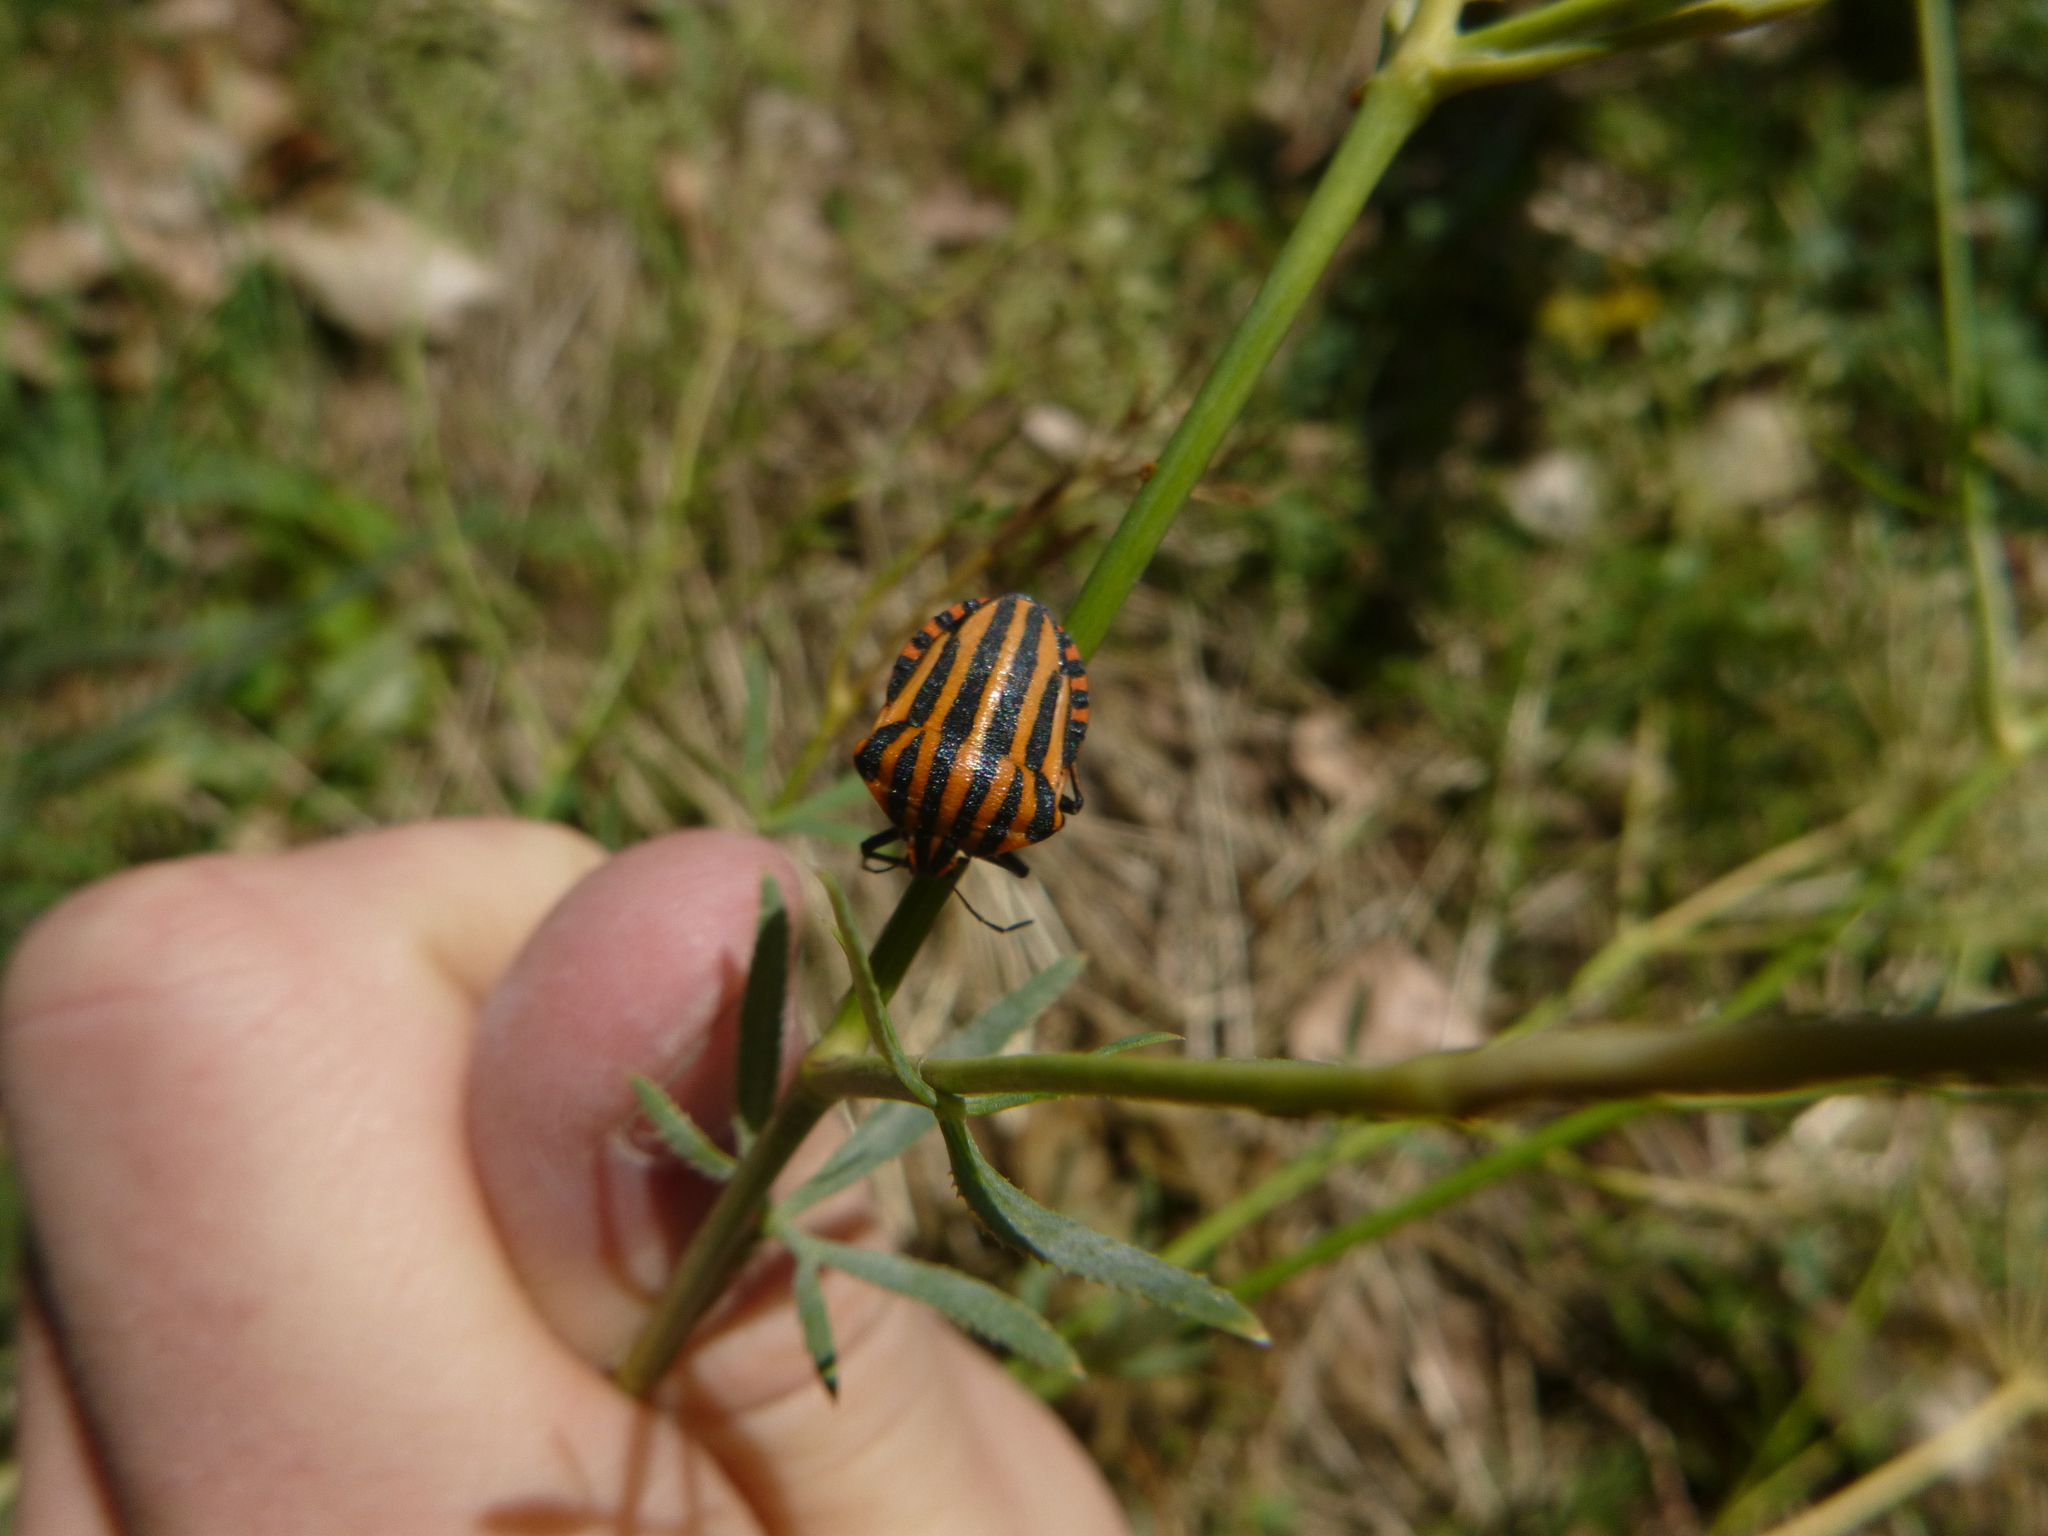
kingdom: Animalia
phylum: Arthropoda
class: Insecta
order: Hemiptera
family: Pentatomidae
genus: Graphosoma
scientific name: Graphosoma italicum
